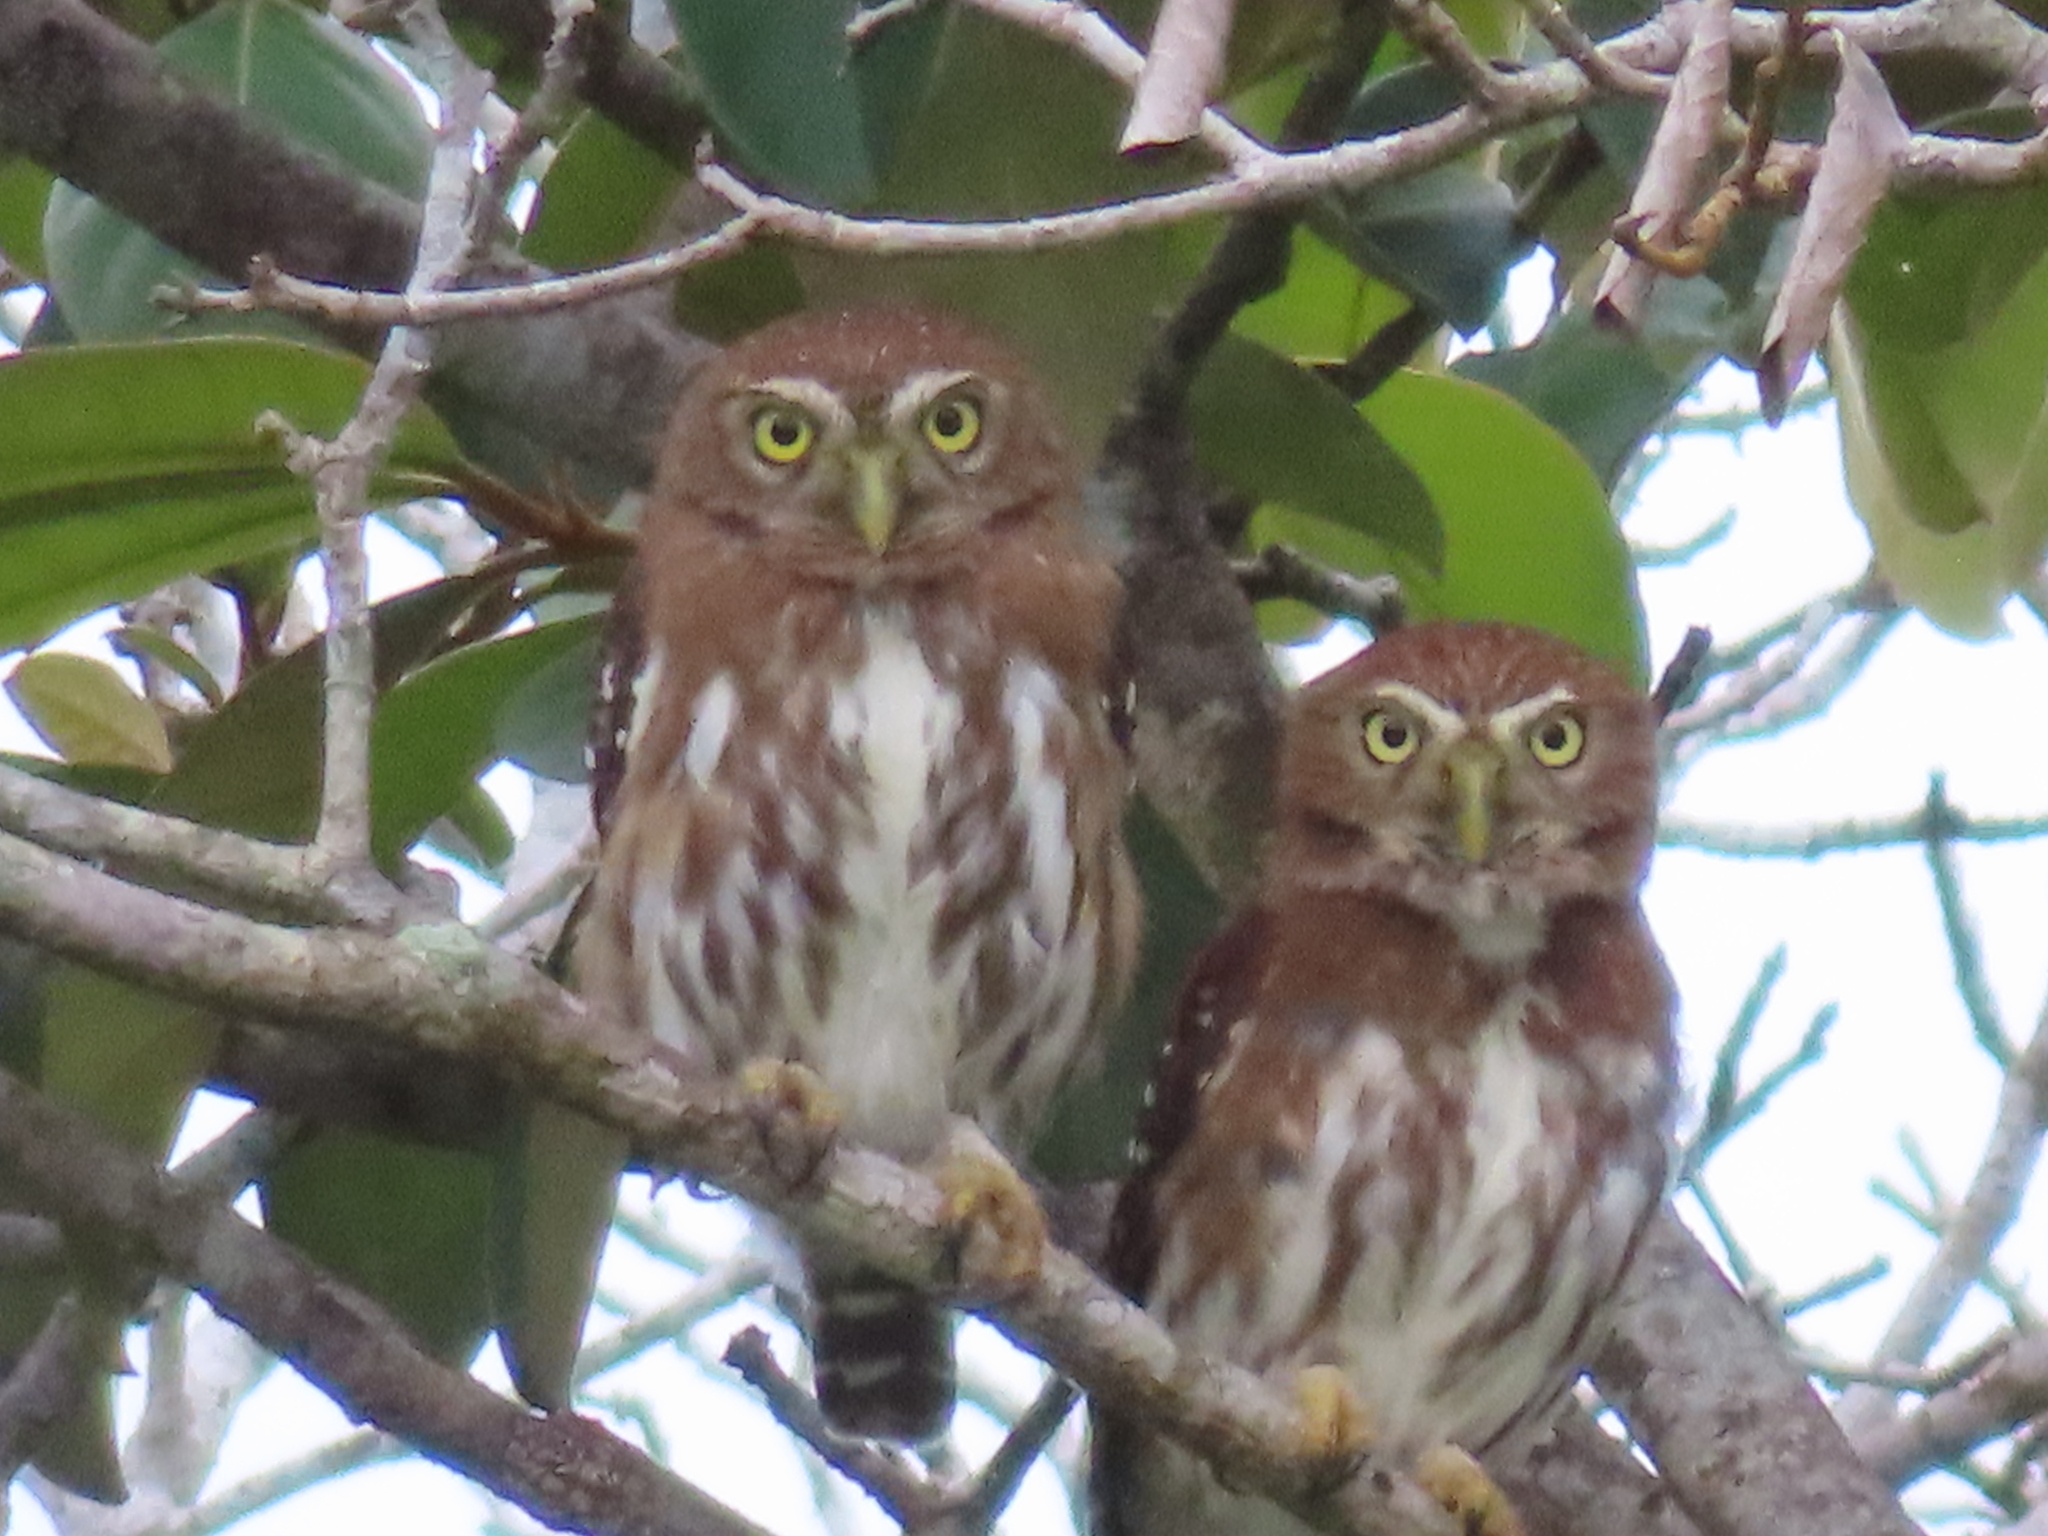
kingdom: Animalia
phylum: Chordata
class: Aves
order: Strigiformes
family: Strigidae
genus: Glaucidium
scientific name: Glaucidium brasilianum
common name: Ferruginous pygmy-owl
